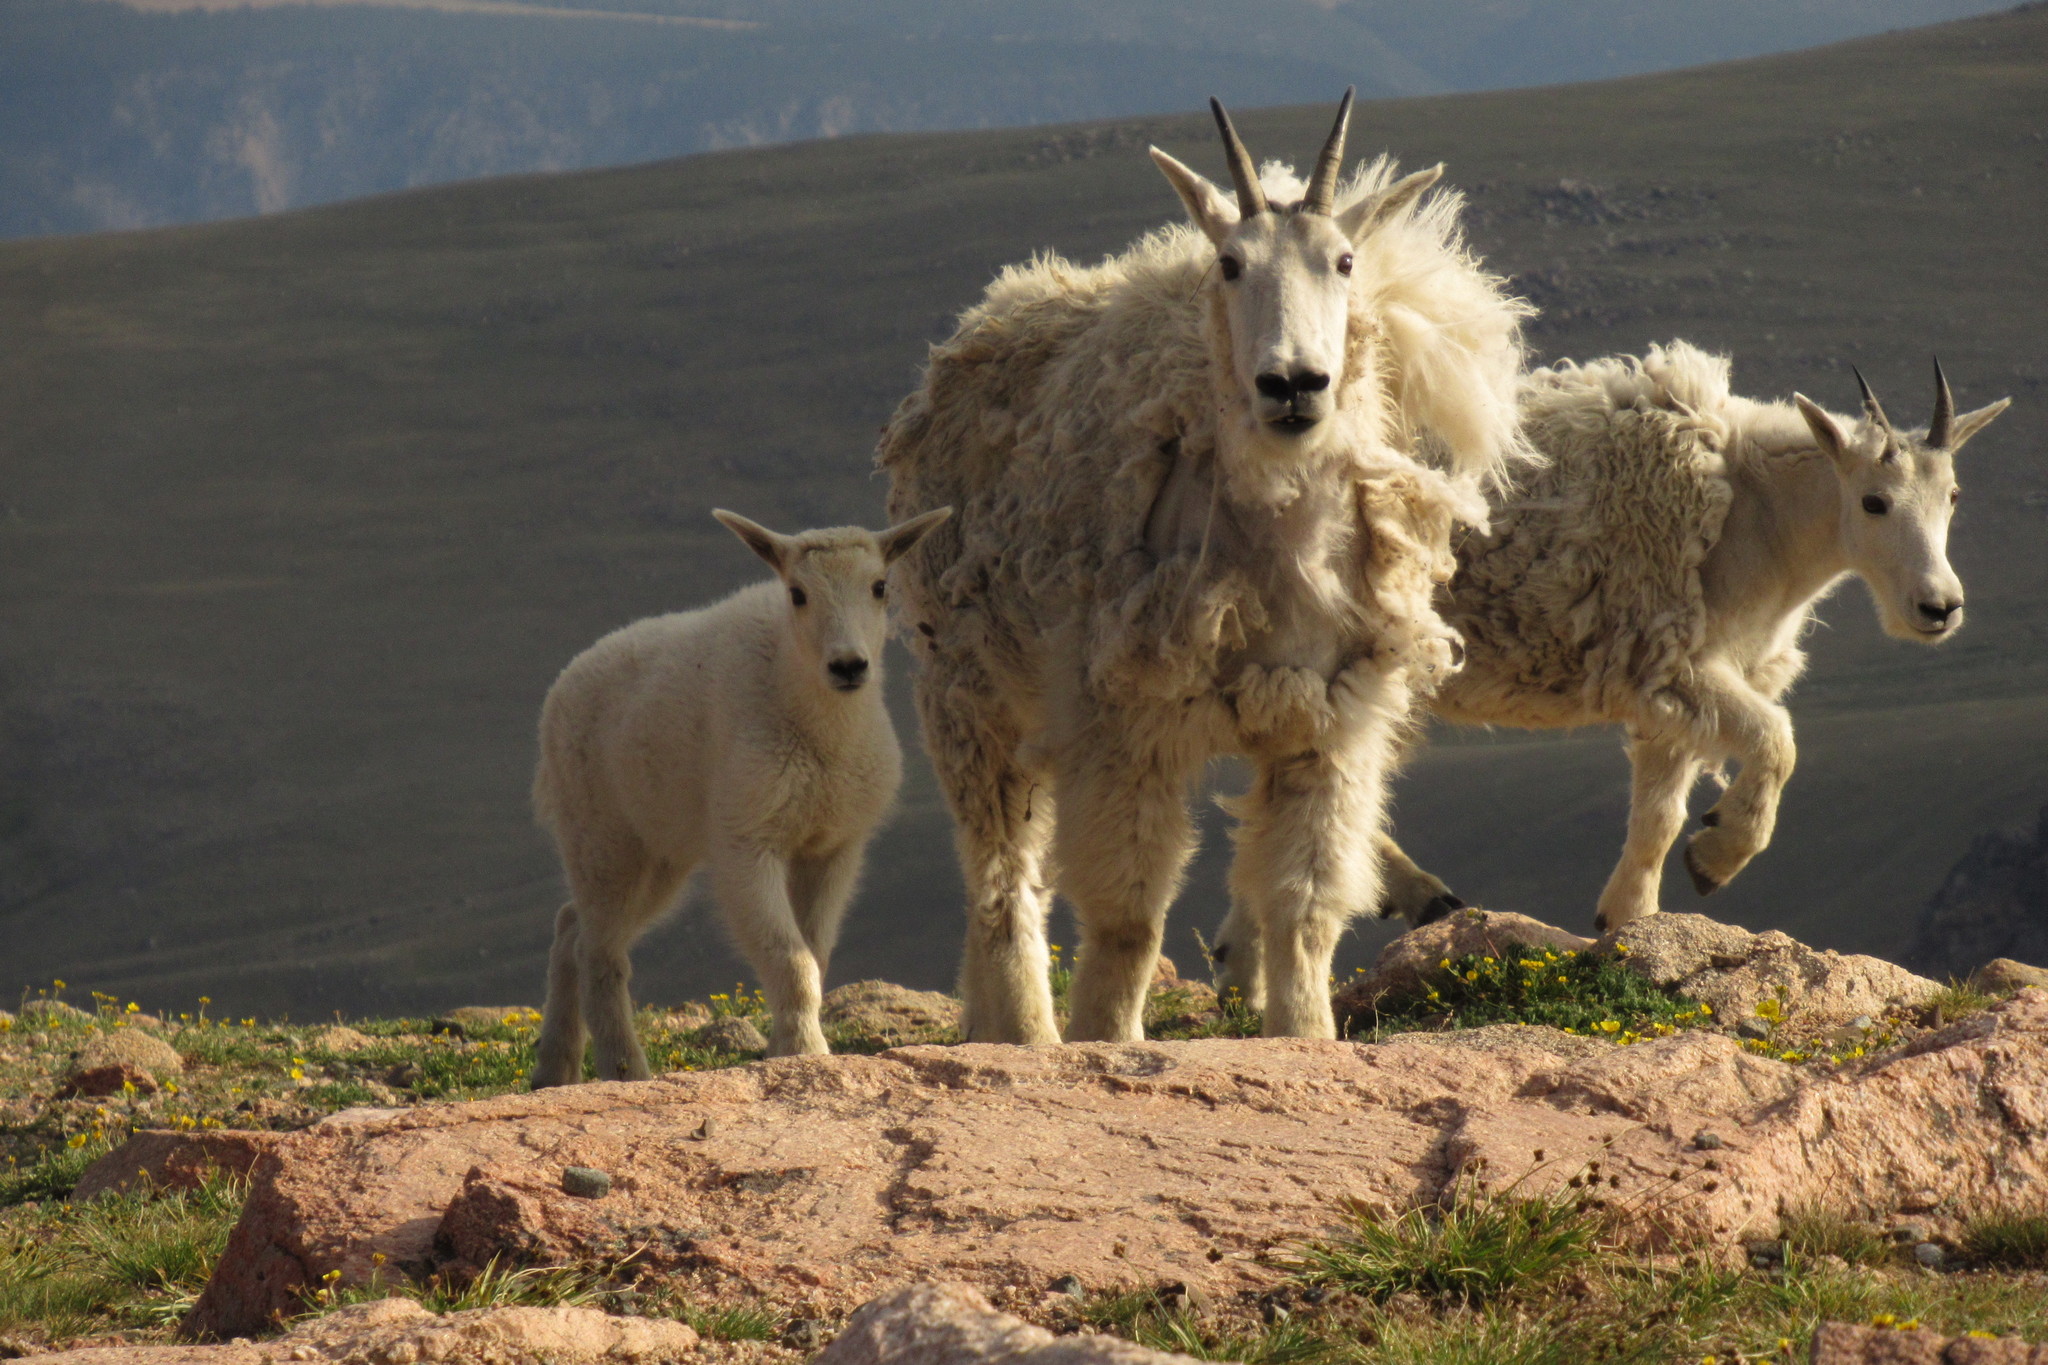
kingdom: Animalia
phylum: Chordata
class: Mammalia
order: Artiodactyla
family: Bovidae
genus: Oreamnos
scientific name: Oreamnos americanus
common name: Mountain goat
